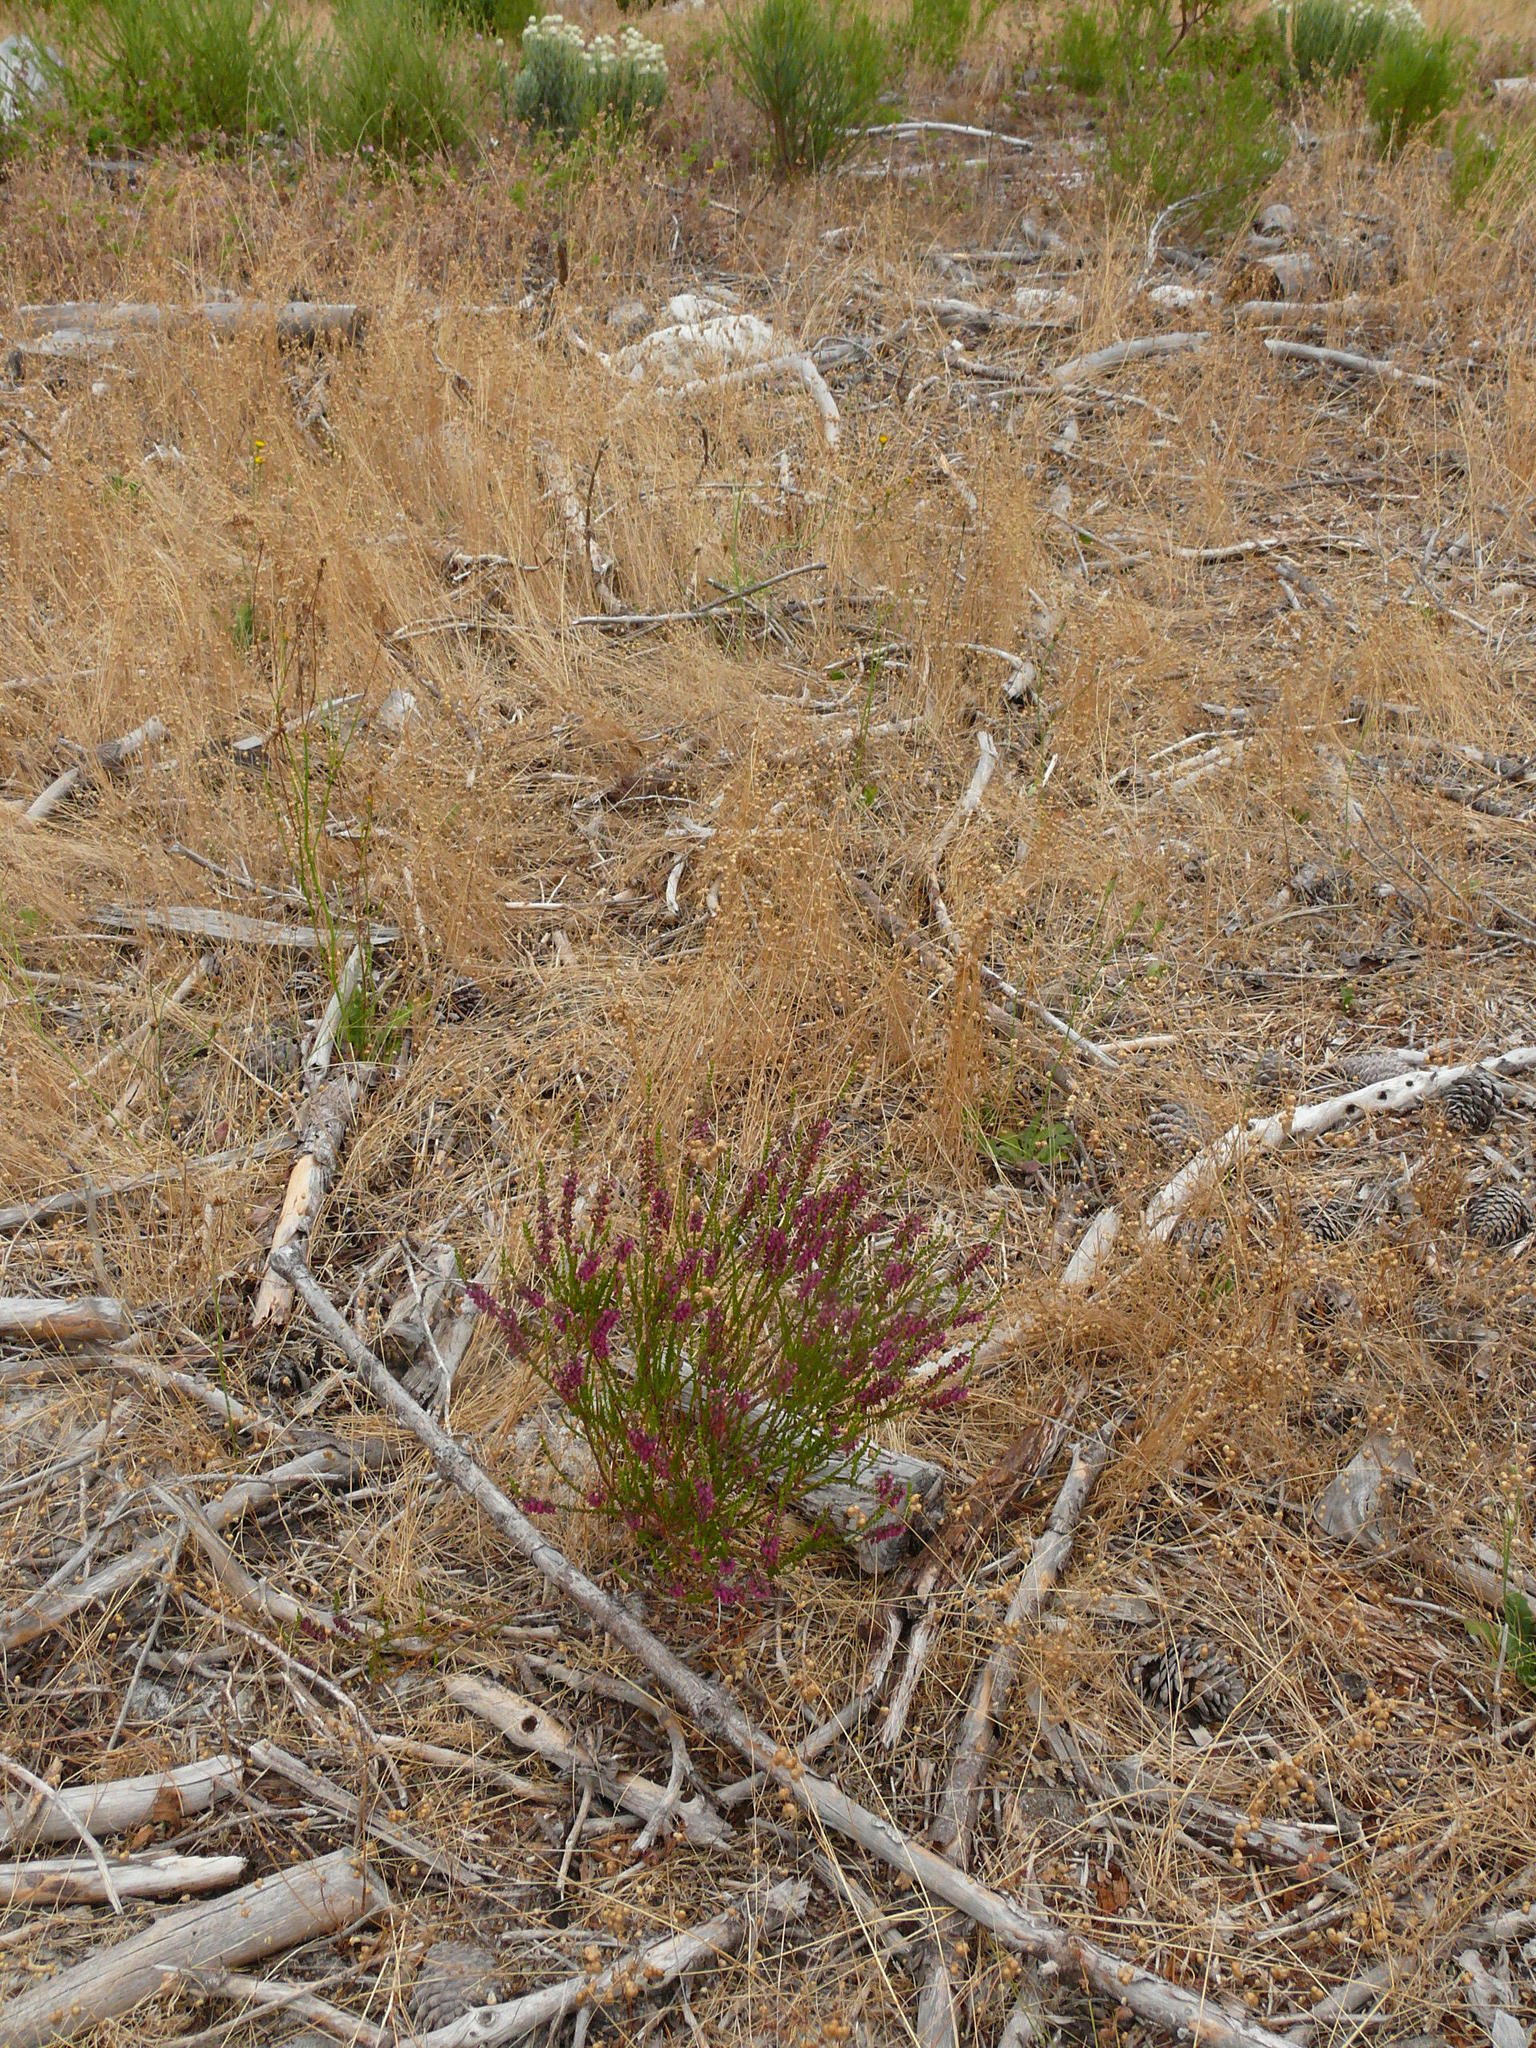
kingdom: Plantae
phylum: Tracheophyta
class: Magnoliopsida
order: Ericales
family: Ericaceae
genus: Erica
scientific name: Erica pulchella
